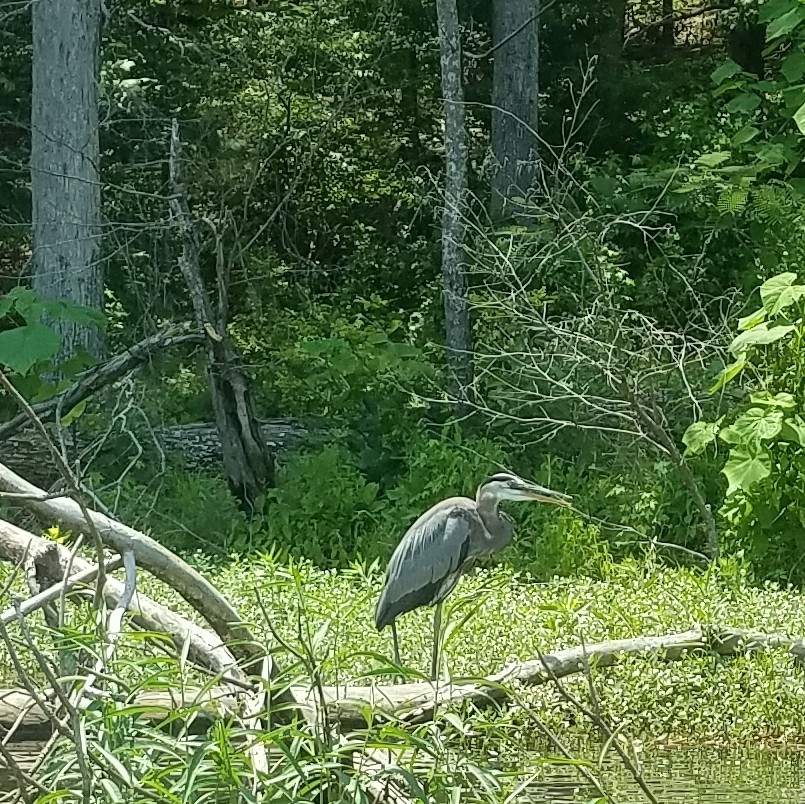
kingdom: Animalia
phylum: Chordata
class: Aves
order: Pelecaniformes
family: Ardeidae
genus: Ardea
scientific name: Ardea herodias
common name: Great blue heron
